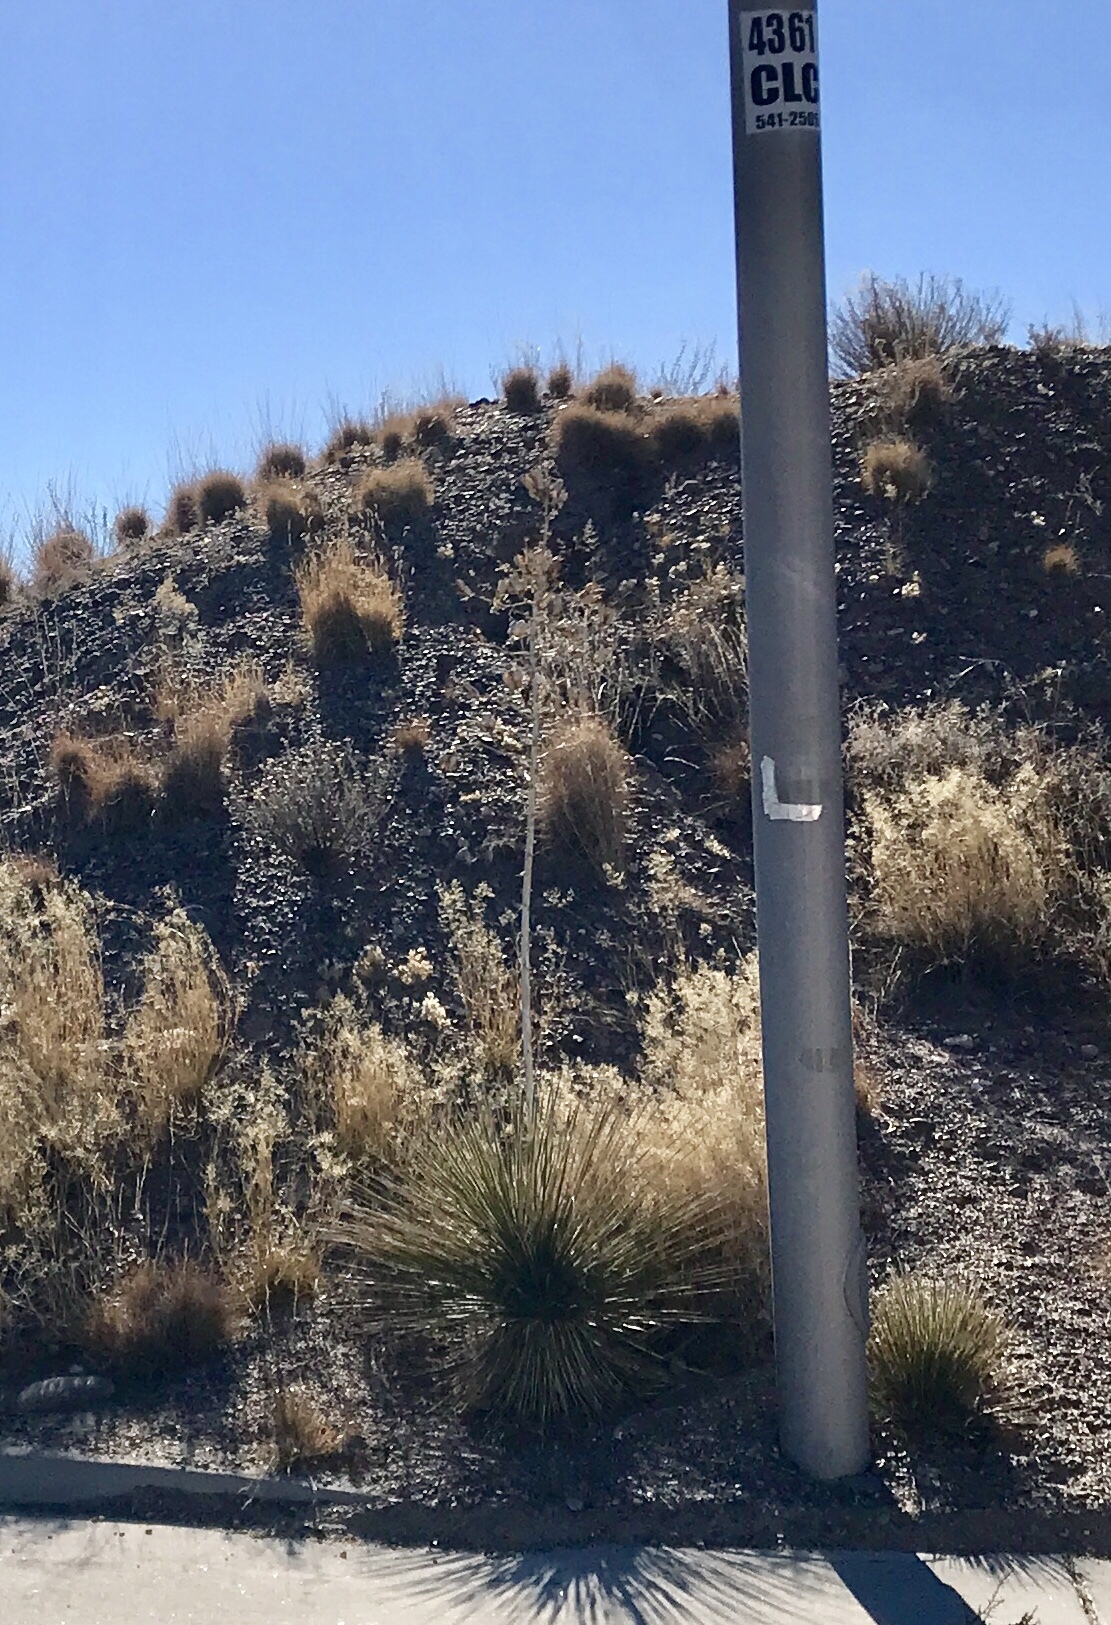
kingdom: Plantae
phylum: Tracheophyta
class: Liliopsida
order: Asparagales
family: Asparagaceae
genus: Yucca
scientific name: Yucca elata
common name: Palmella
